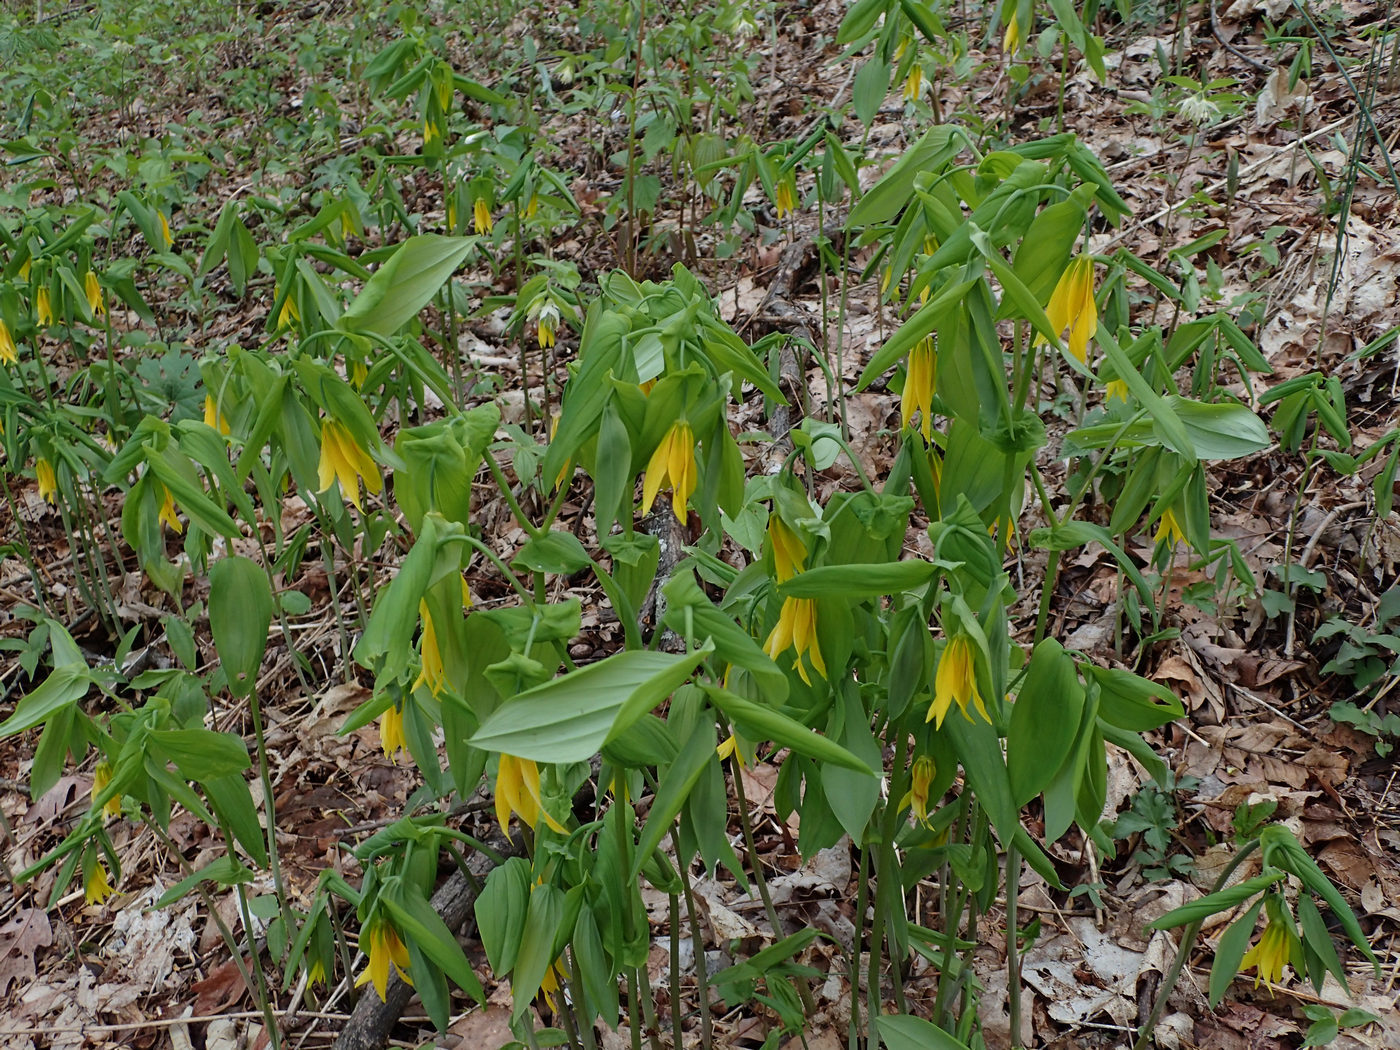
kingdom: Plantae
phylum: Tracheophyta
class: Liliopsida
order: Liliales
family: Colchicaceae
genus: Uvularia
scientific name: Uvularia grandiflora
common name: Bellwort
